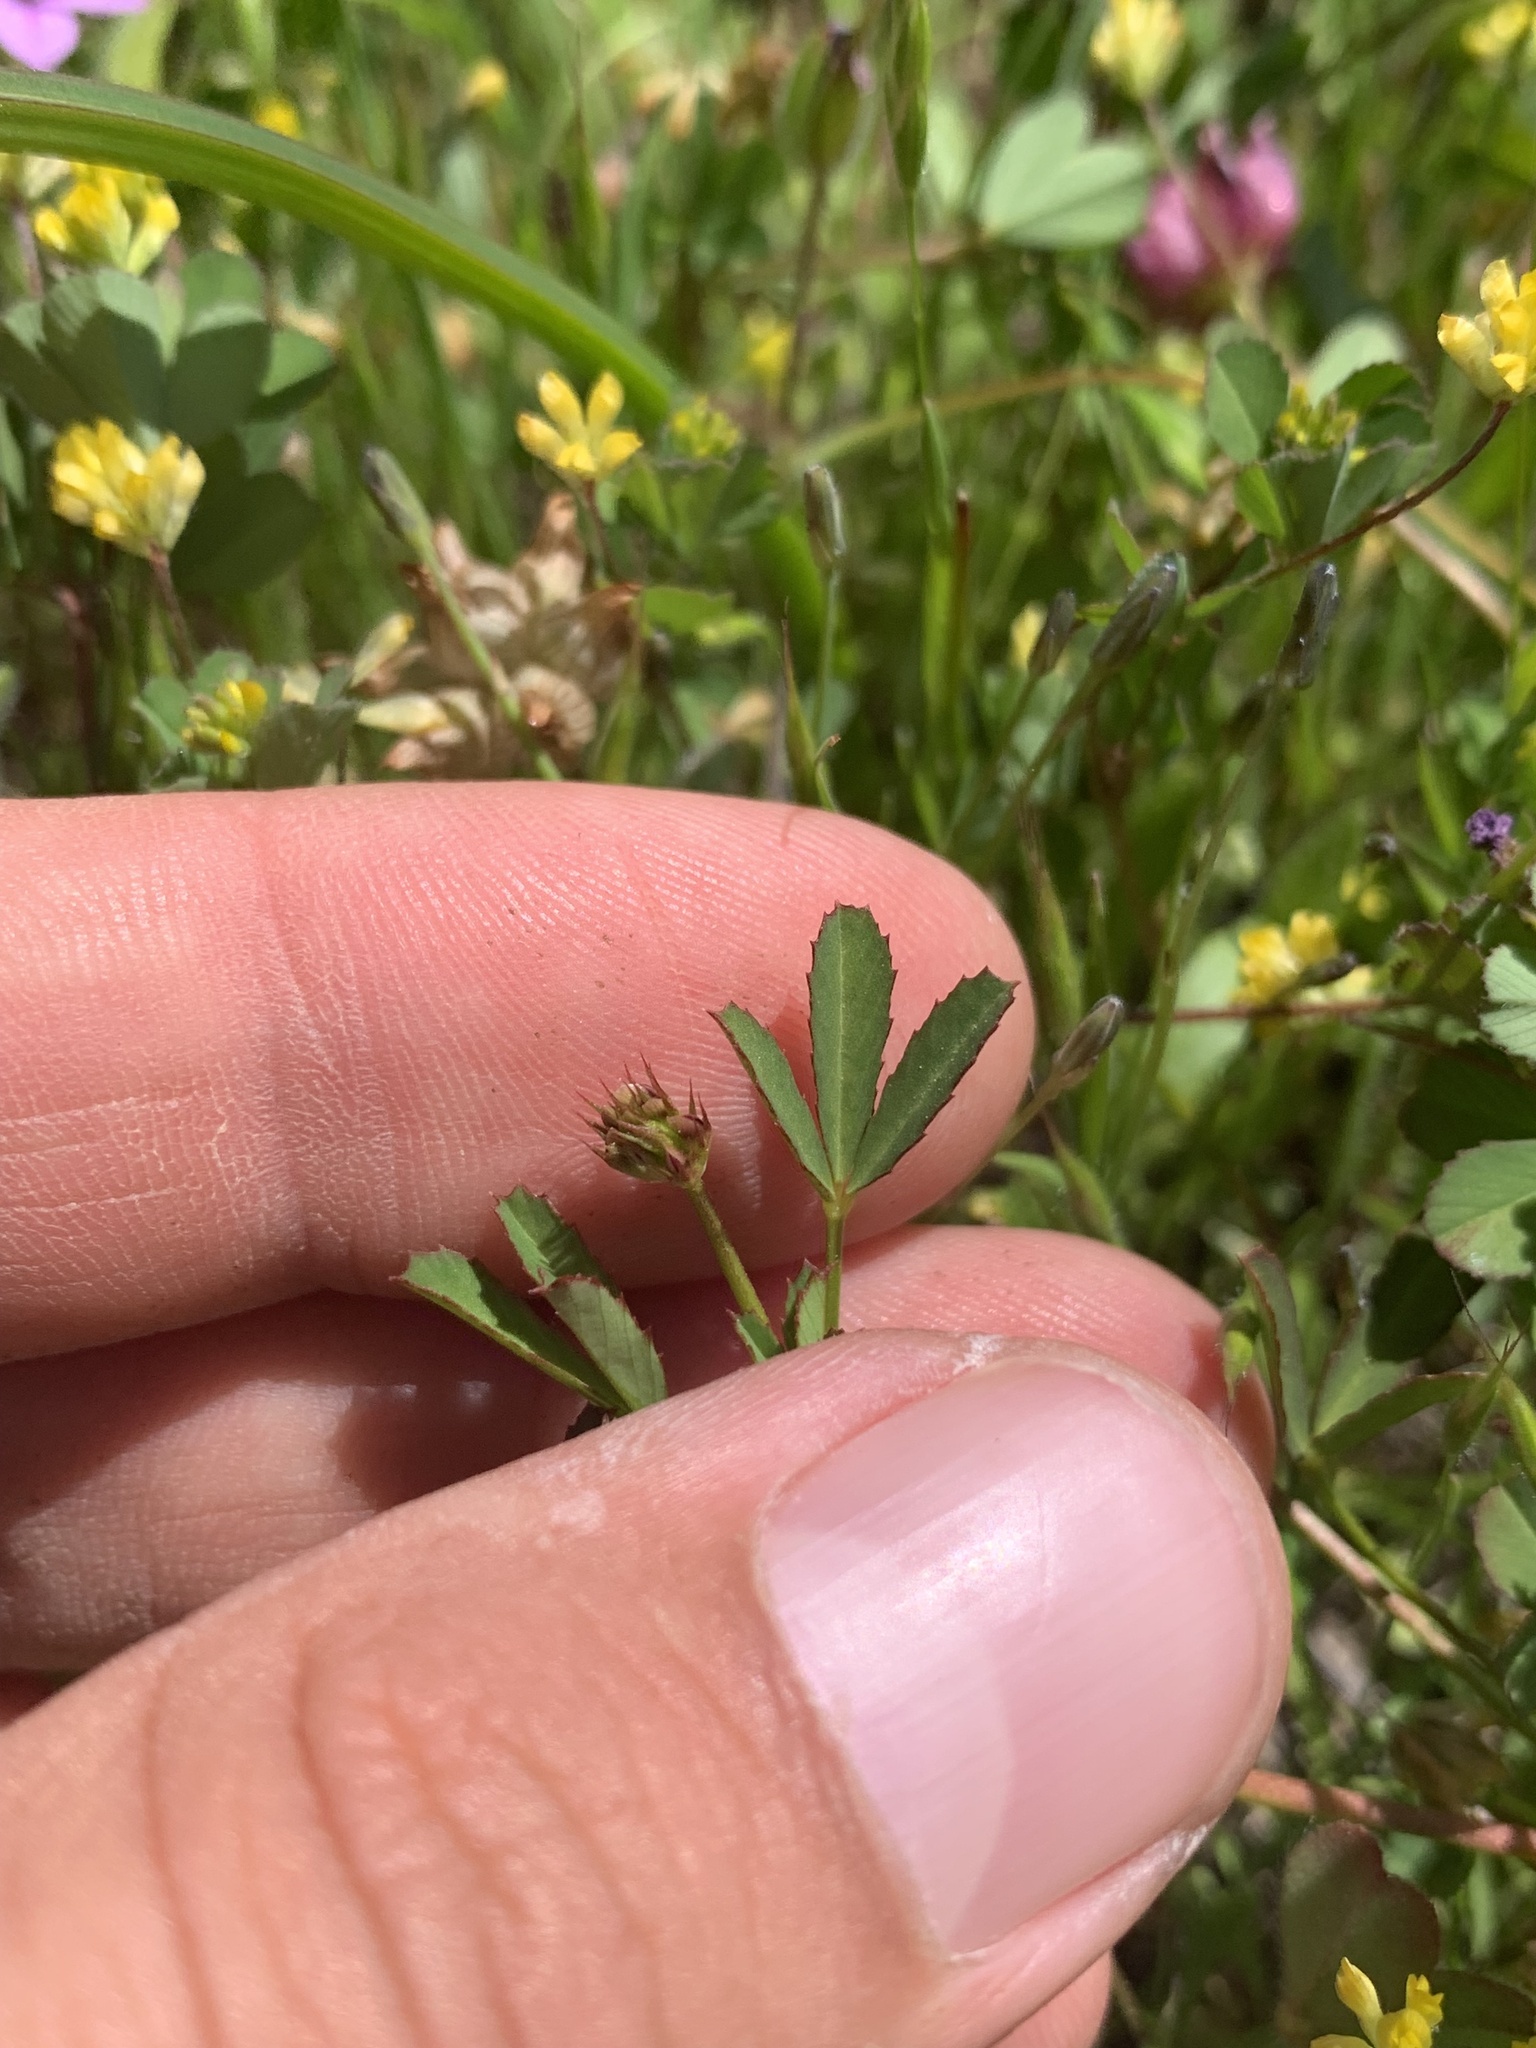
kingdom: Plantae
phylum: Tracheophyta
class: Magnoliopsida
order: Fabales
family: Fabaceae
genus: Trifolium
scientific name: Trifolium depauperatum
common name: Poverty clover
